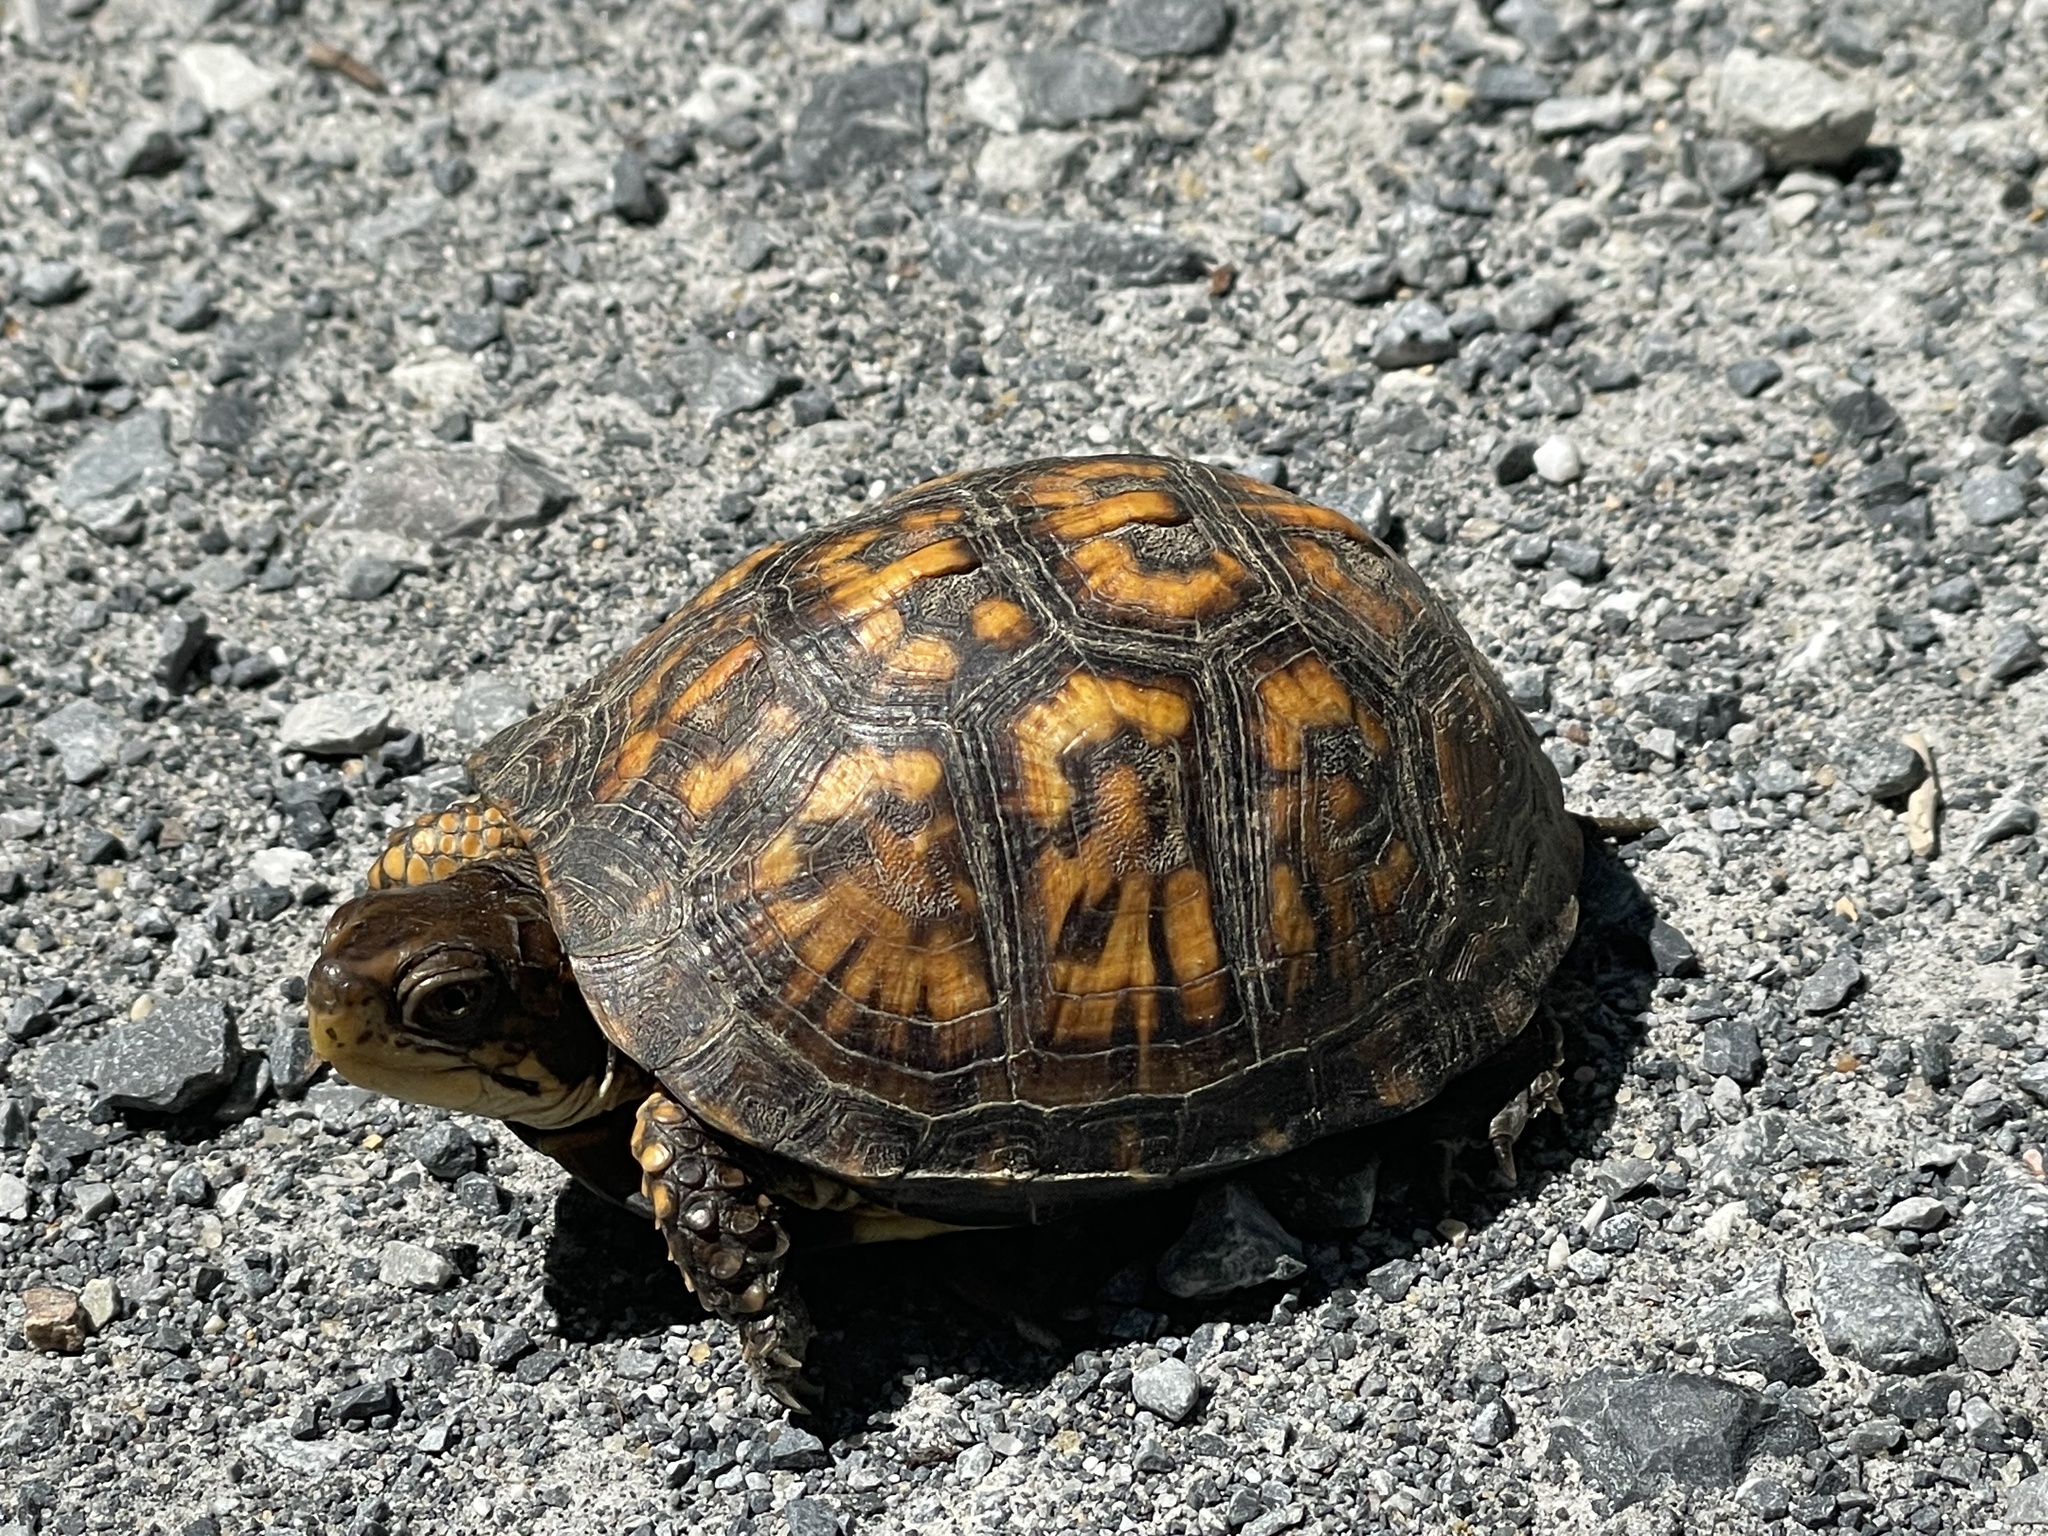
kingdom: Animalia
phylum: Chordata
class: Testudines
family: Emydidae
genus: Terrapene
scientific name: Terrapene carolina
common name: Common box turtle
